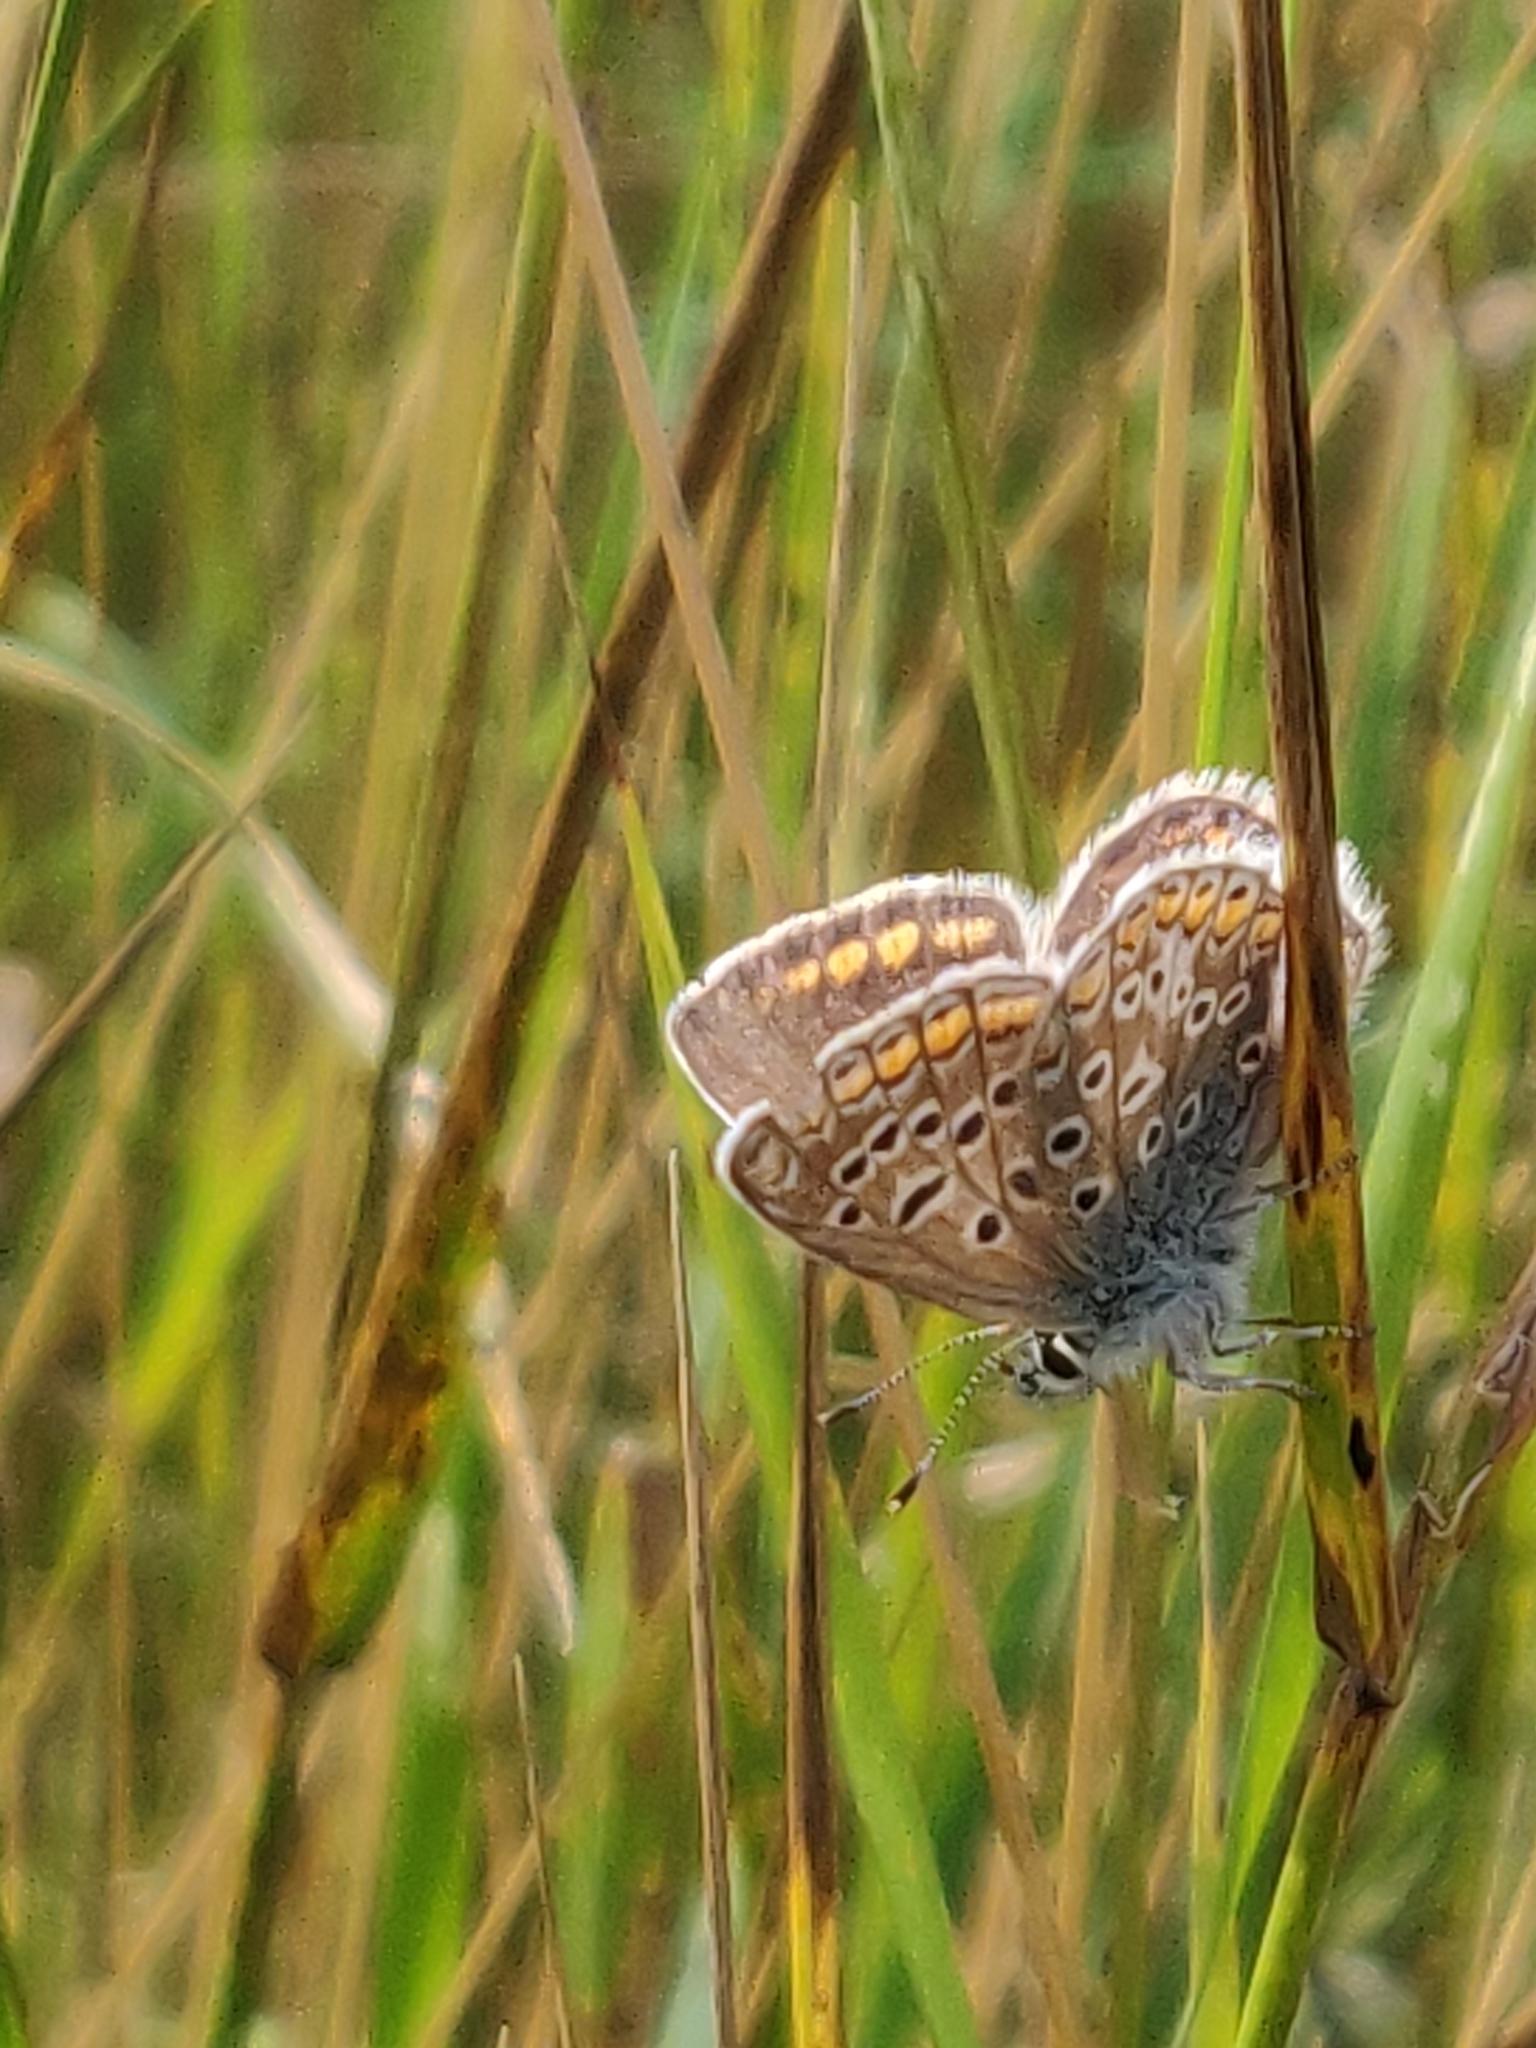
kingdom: Animalia
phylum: Arthropoda
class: Insecta
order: Lepidoptera
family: Lycaenidae
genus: Polyommatus
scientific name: Polyommatus icarus
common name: Common blue
